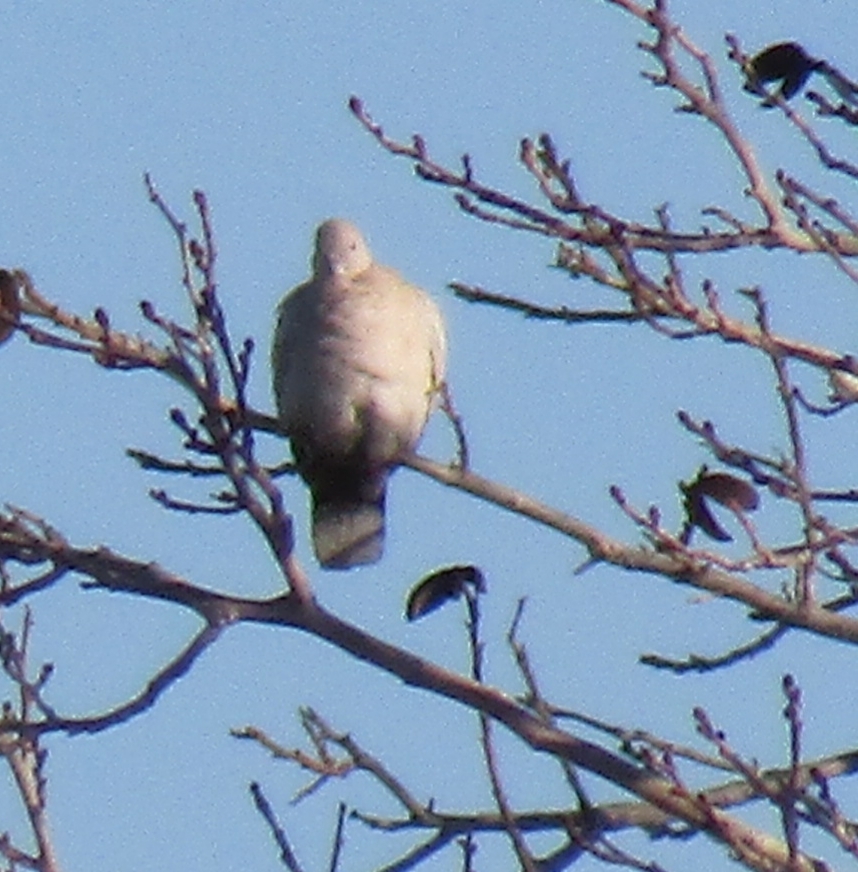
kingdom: Animalia
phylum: Chordata
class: Aves
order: Columbiformes
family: Columbidae
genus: Streptopelia
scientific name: Streptopelia decaocto
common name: Eurasian collared dove
